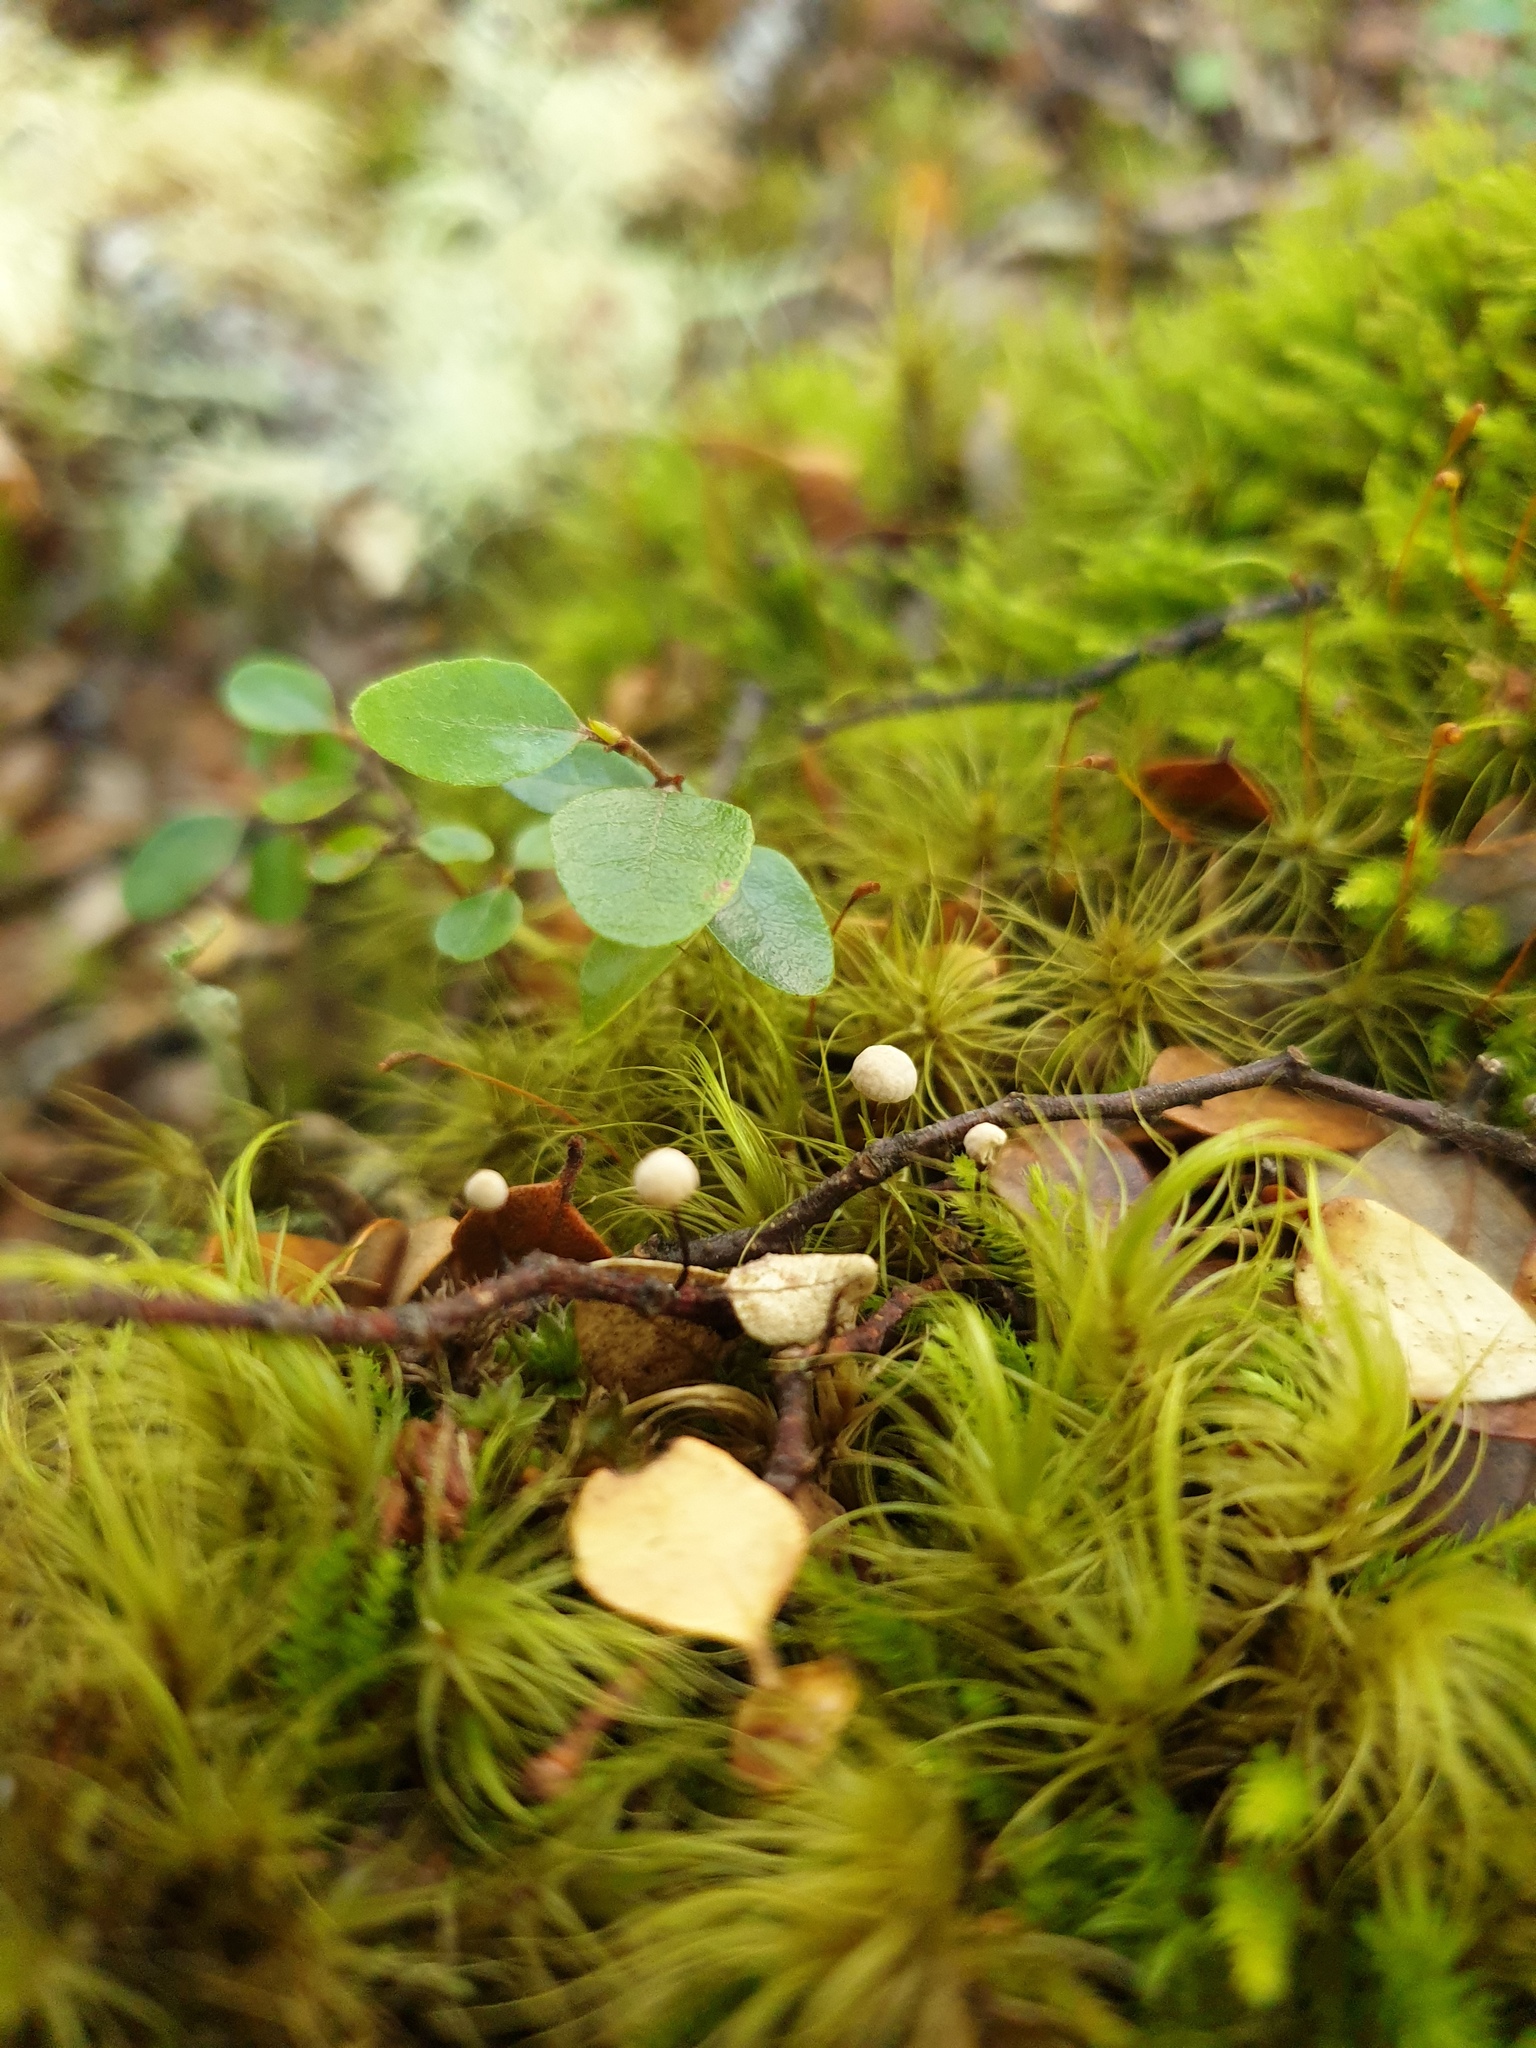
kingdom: Fungi
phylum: Basidiomycota
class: Agaricomycetes
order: Agaricales
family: Omphalotaceae
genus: Gymnopus
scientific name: Gymnopus
